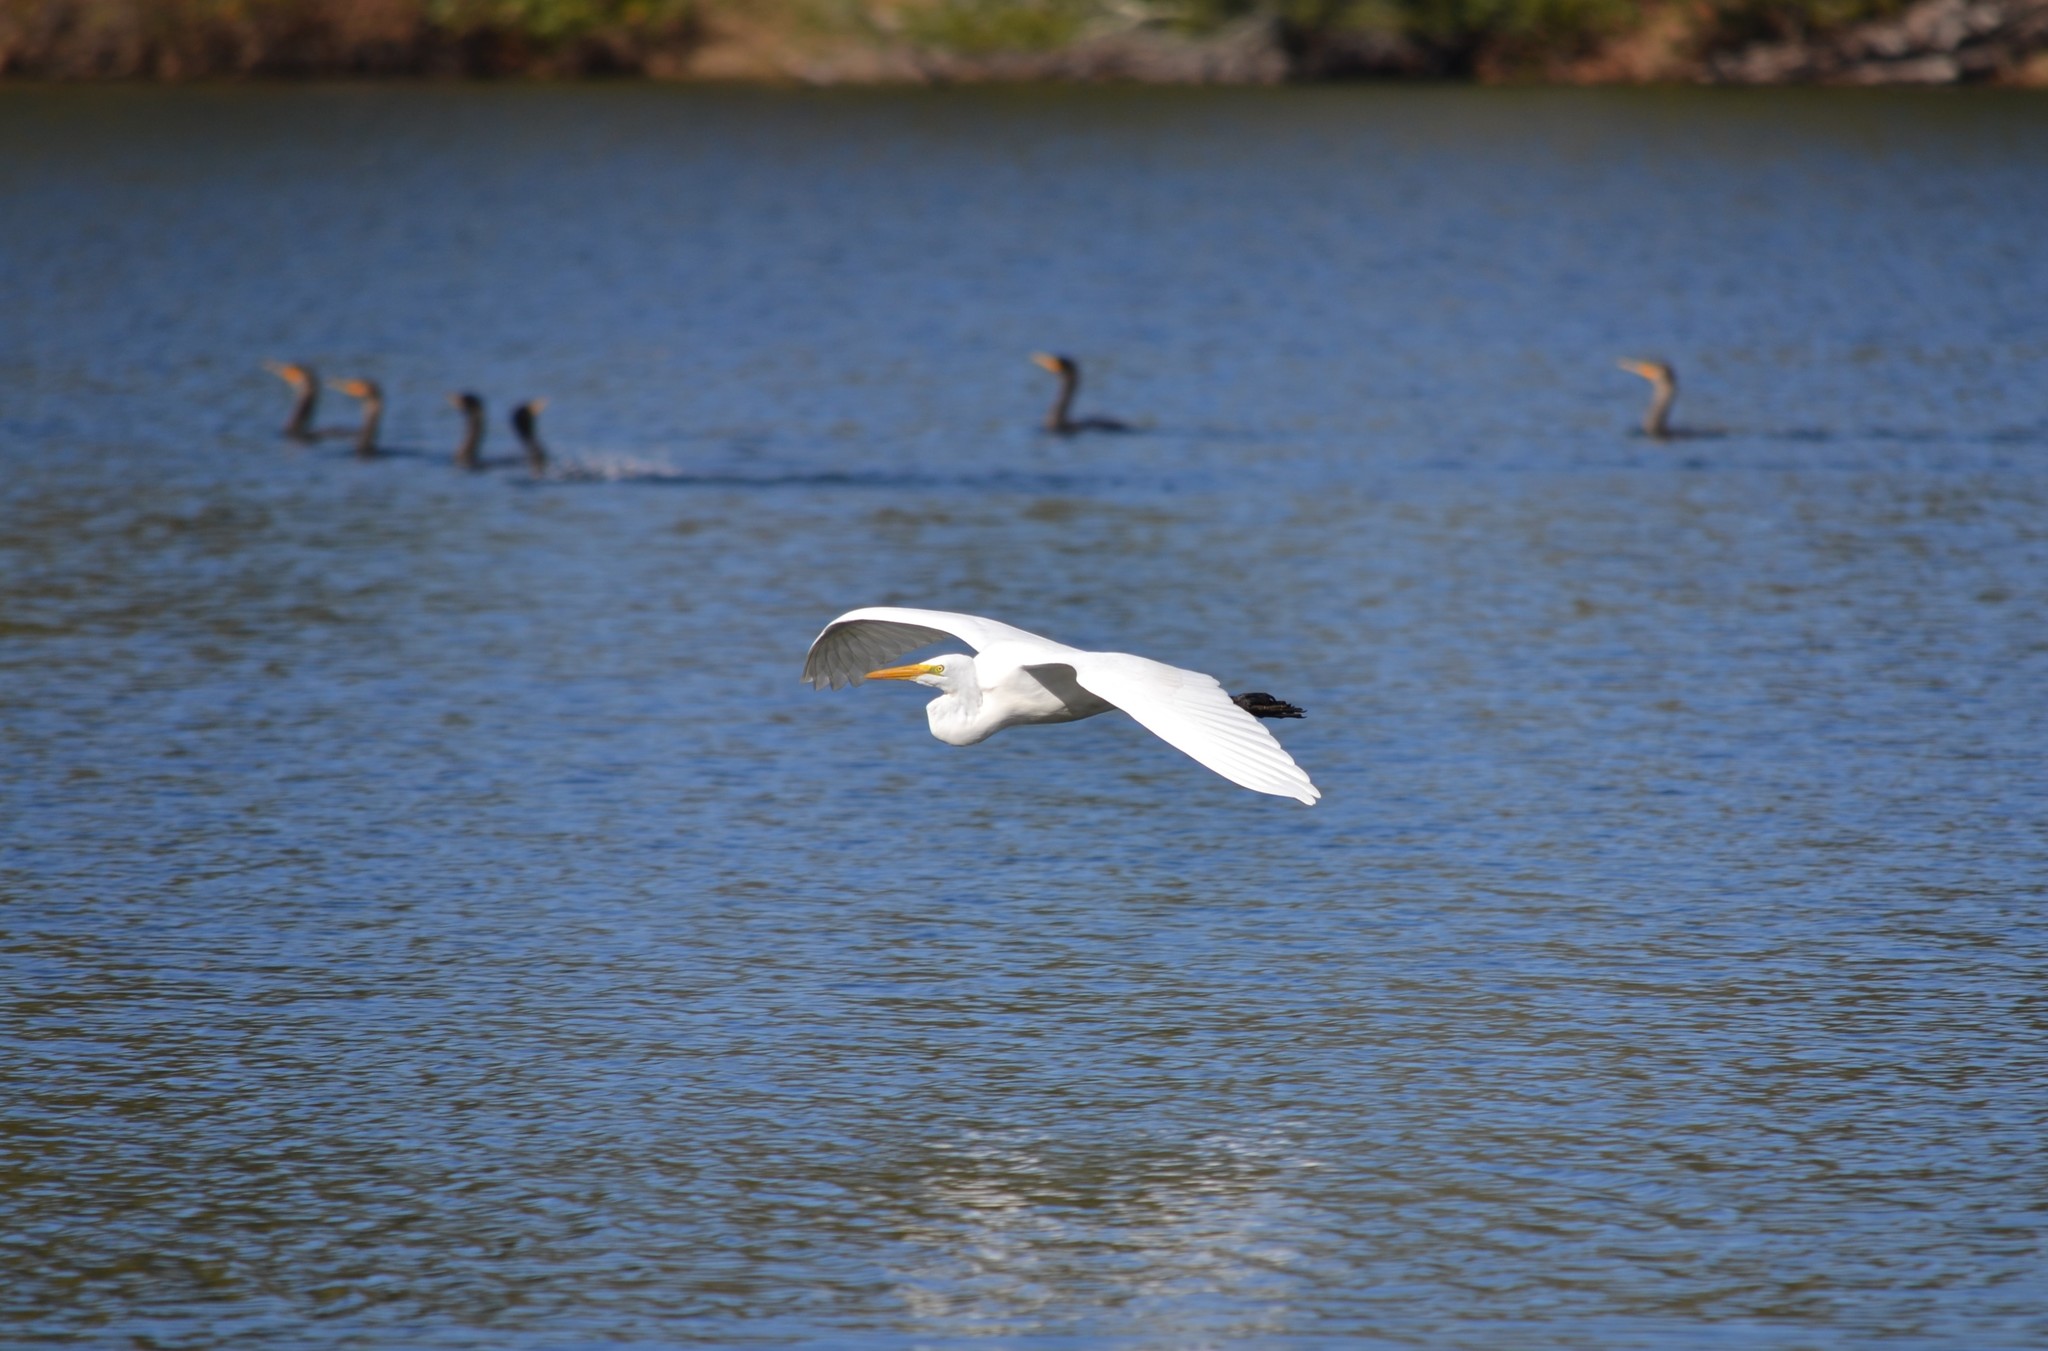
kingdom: Animalia
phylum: Chordata
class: Aves
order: Pelecaniformes
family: Ardeidae
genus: Ardea
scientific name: Ardea alba
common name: Great egret
